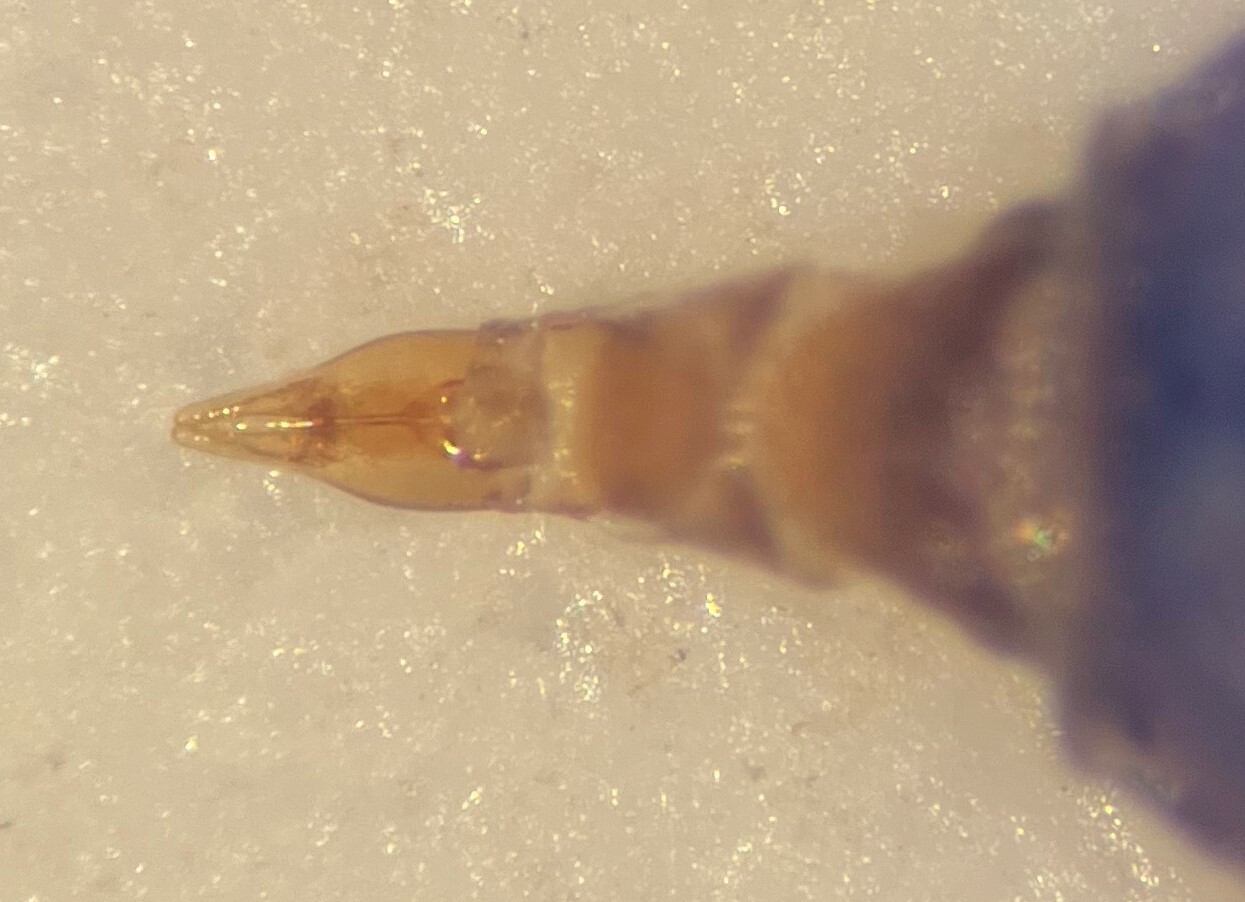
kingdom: Animalia
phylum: Arthropoda
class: Insecta
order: Coleoptera
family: Hydrophilidae
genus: Enochrus
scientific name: Enochrus ochraceus
